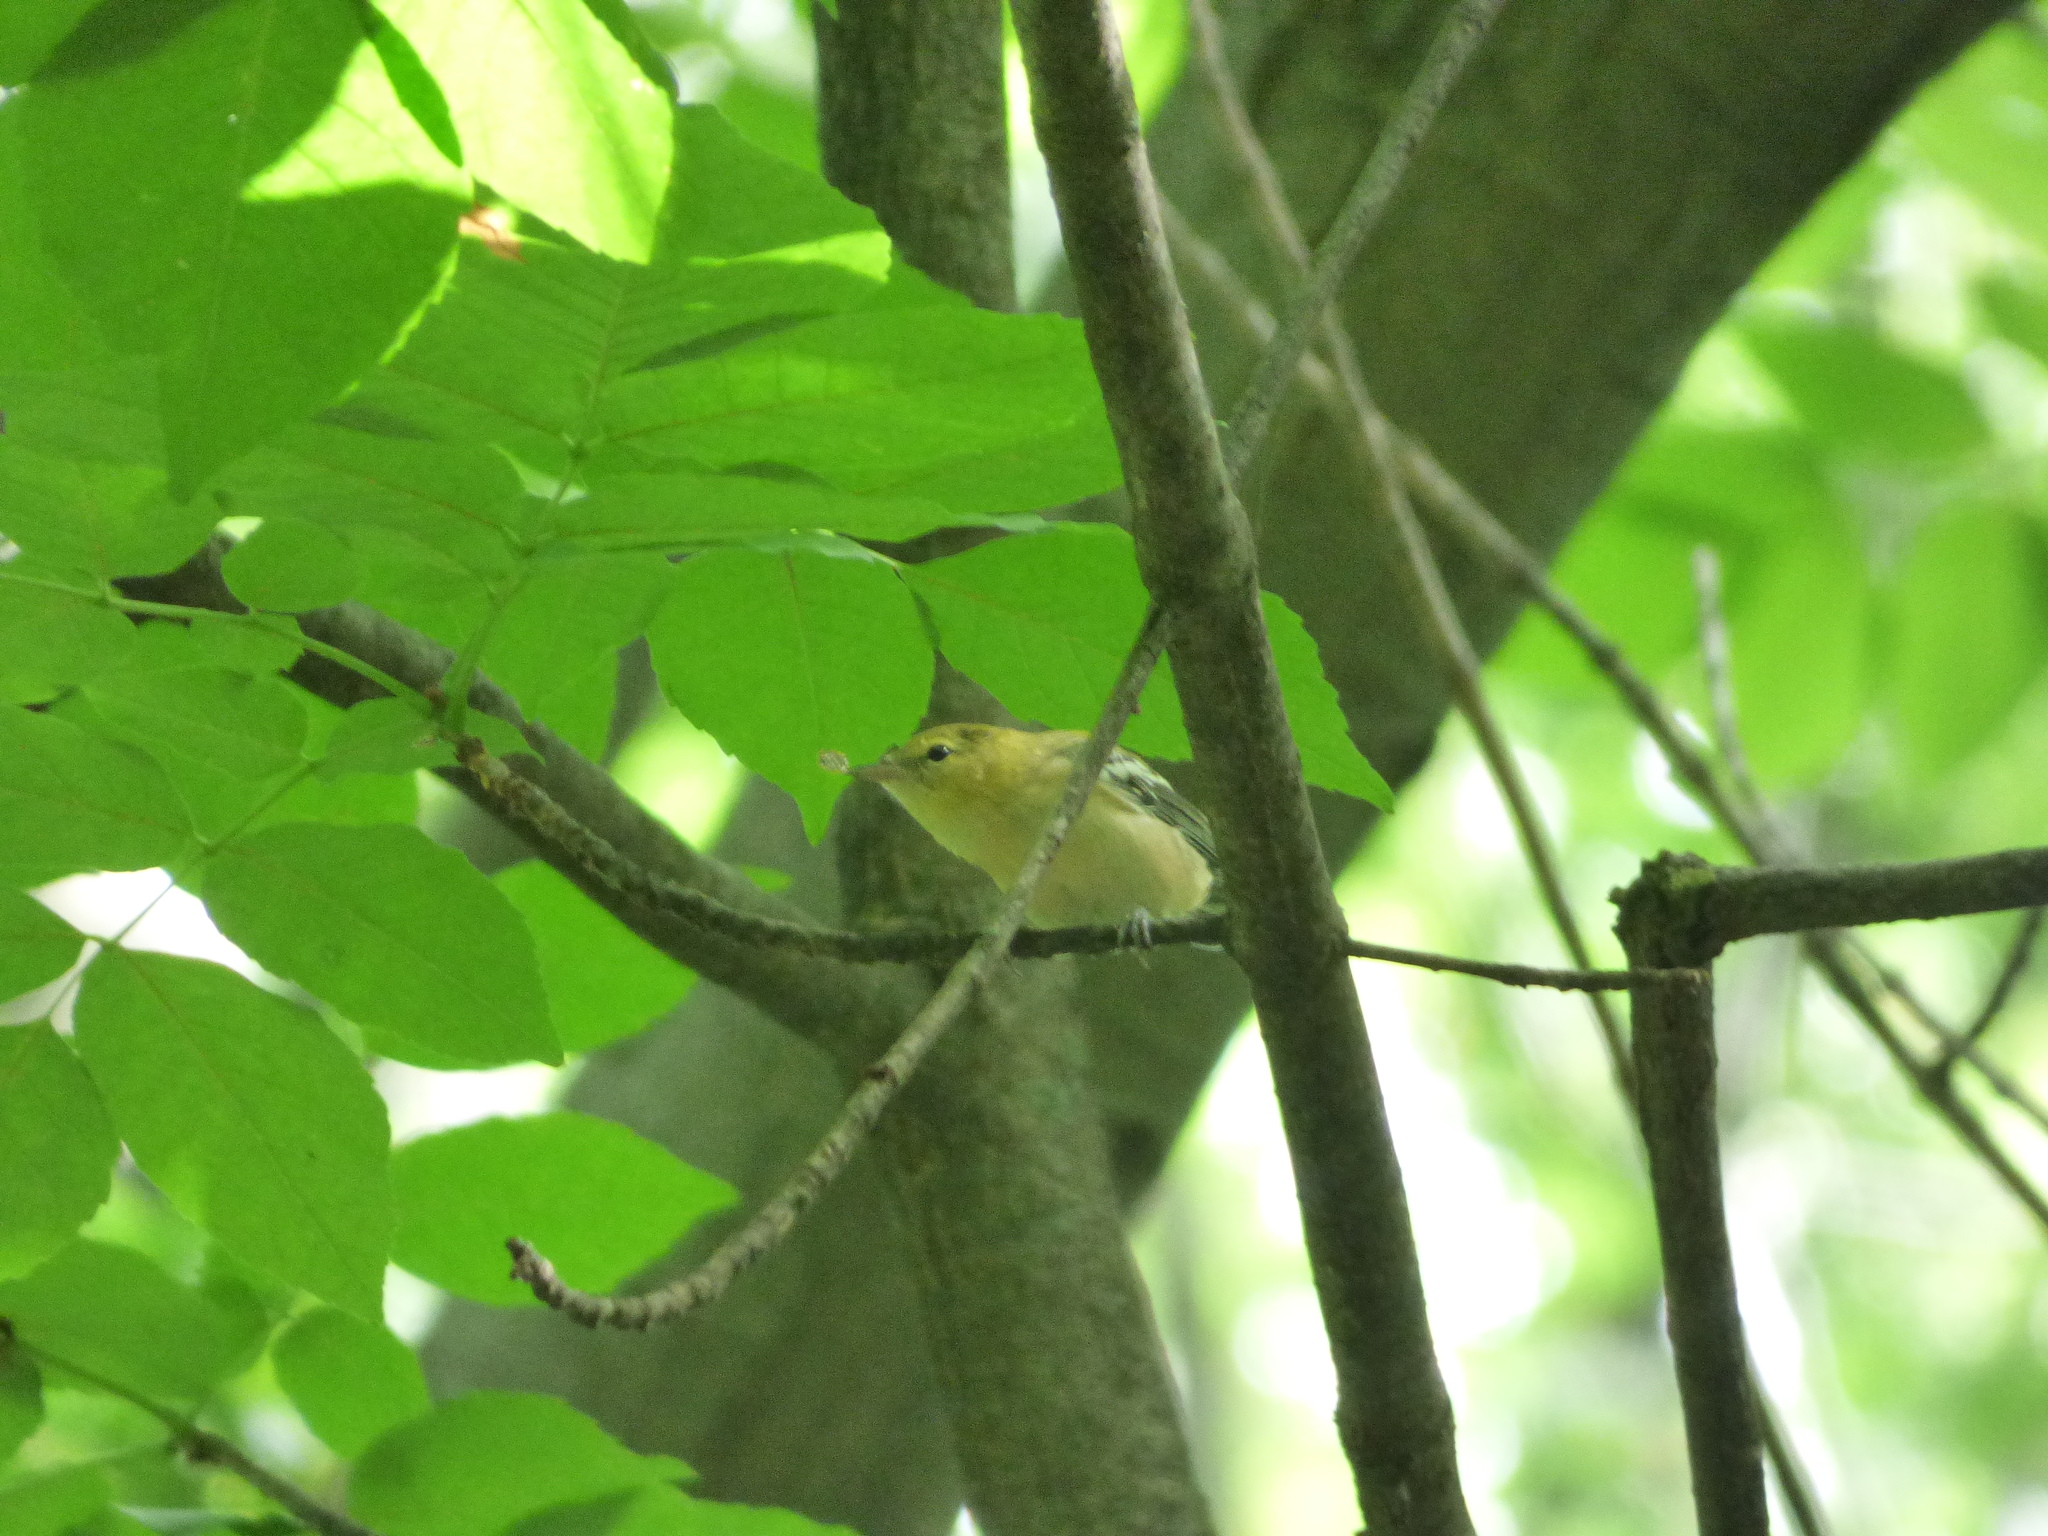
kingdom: Animalia
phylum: Chordata
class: Aves
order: Passeriformes
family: Parulidae
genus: Setophaga
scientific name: Setophaga castanea
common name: Bay-breasted warbler
